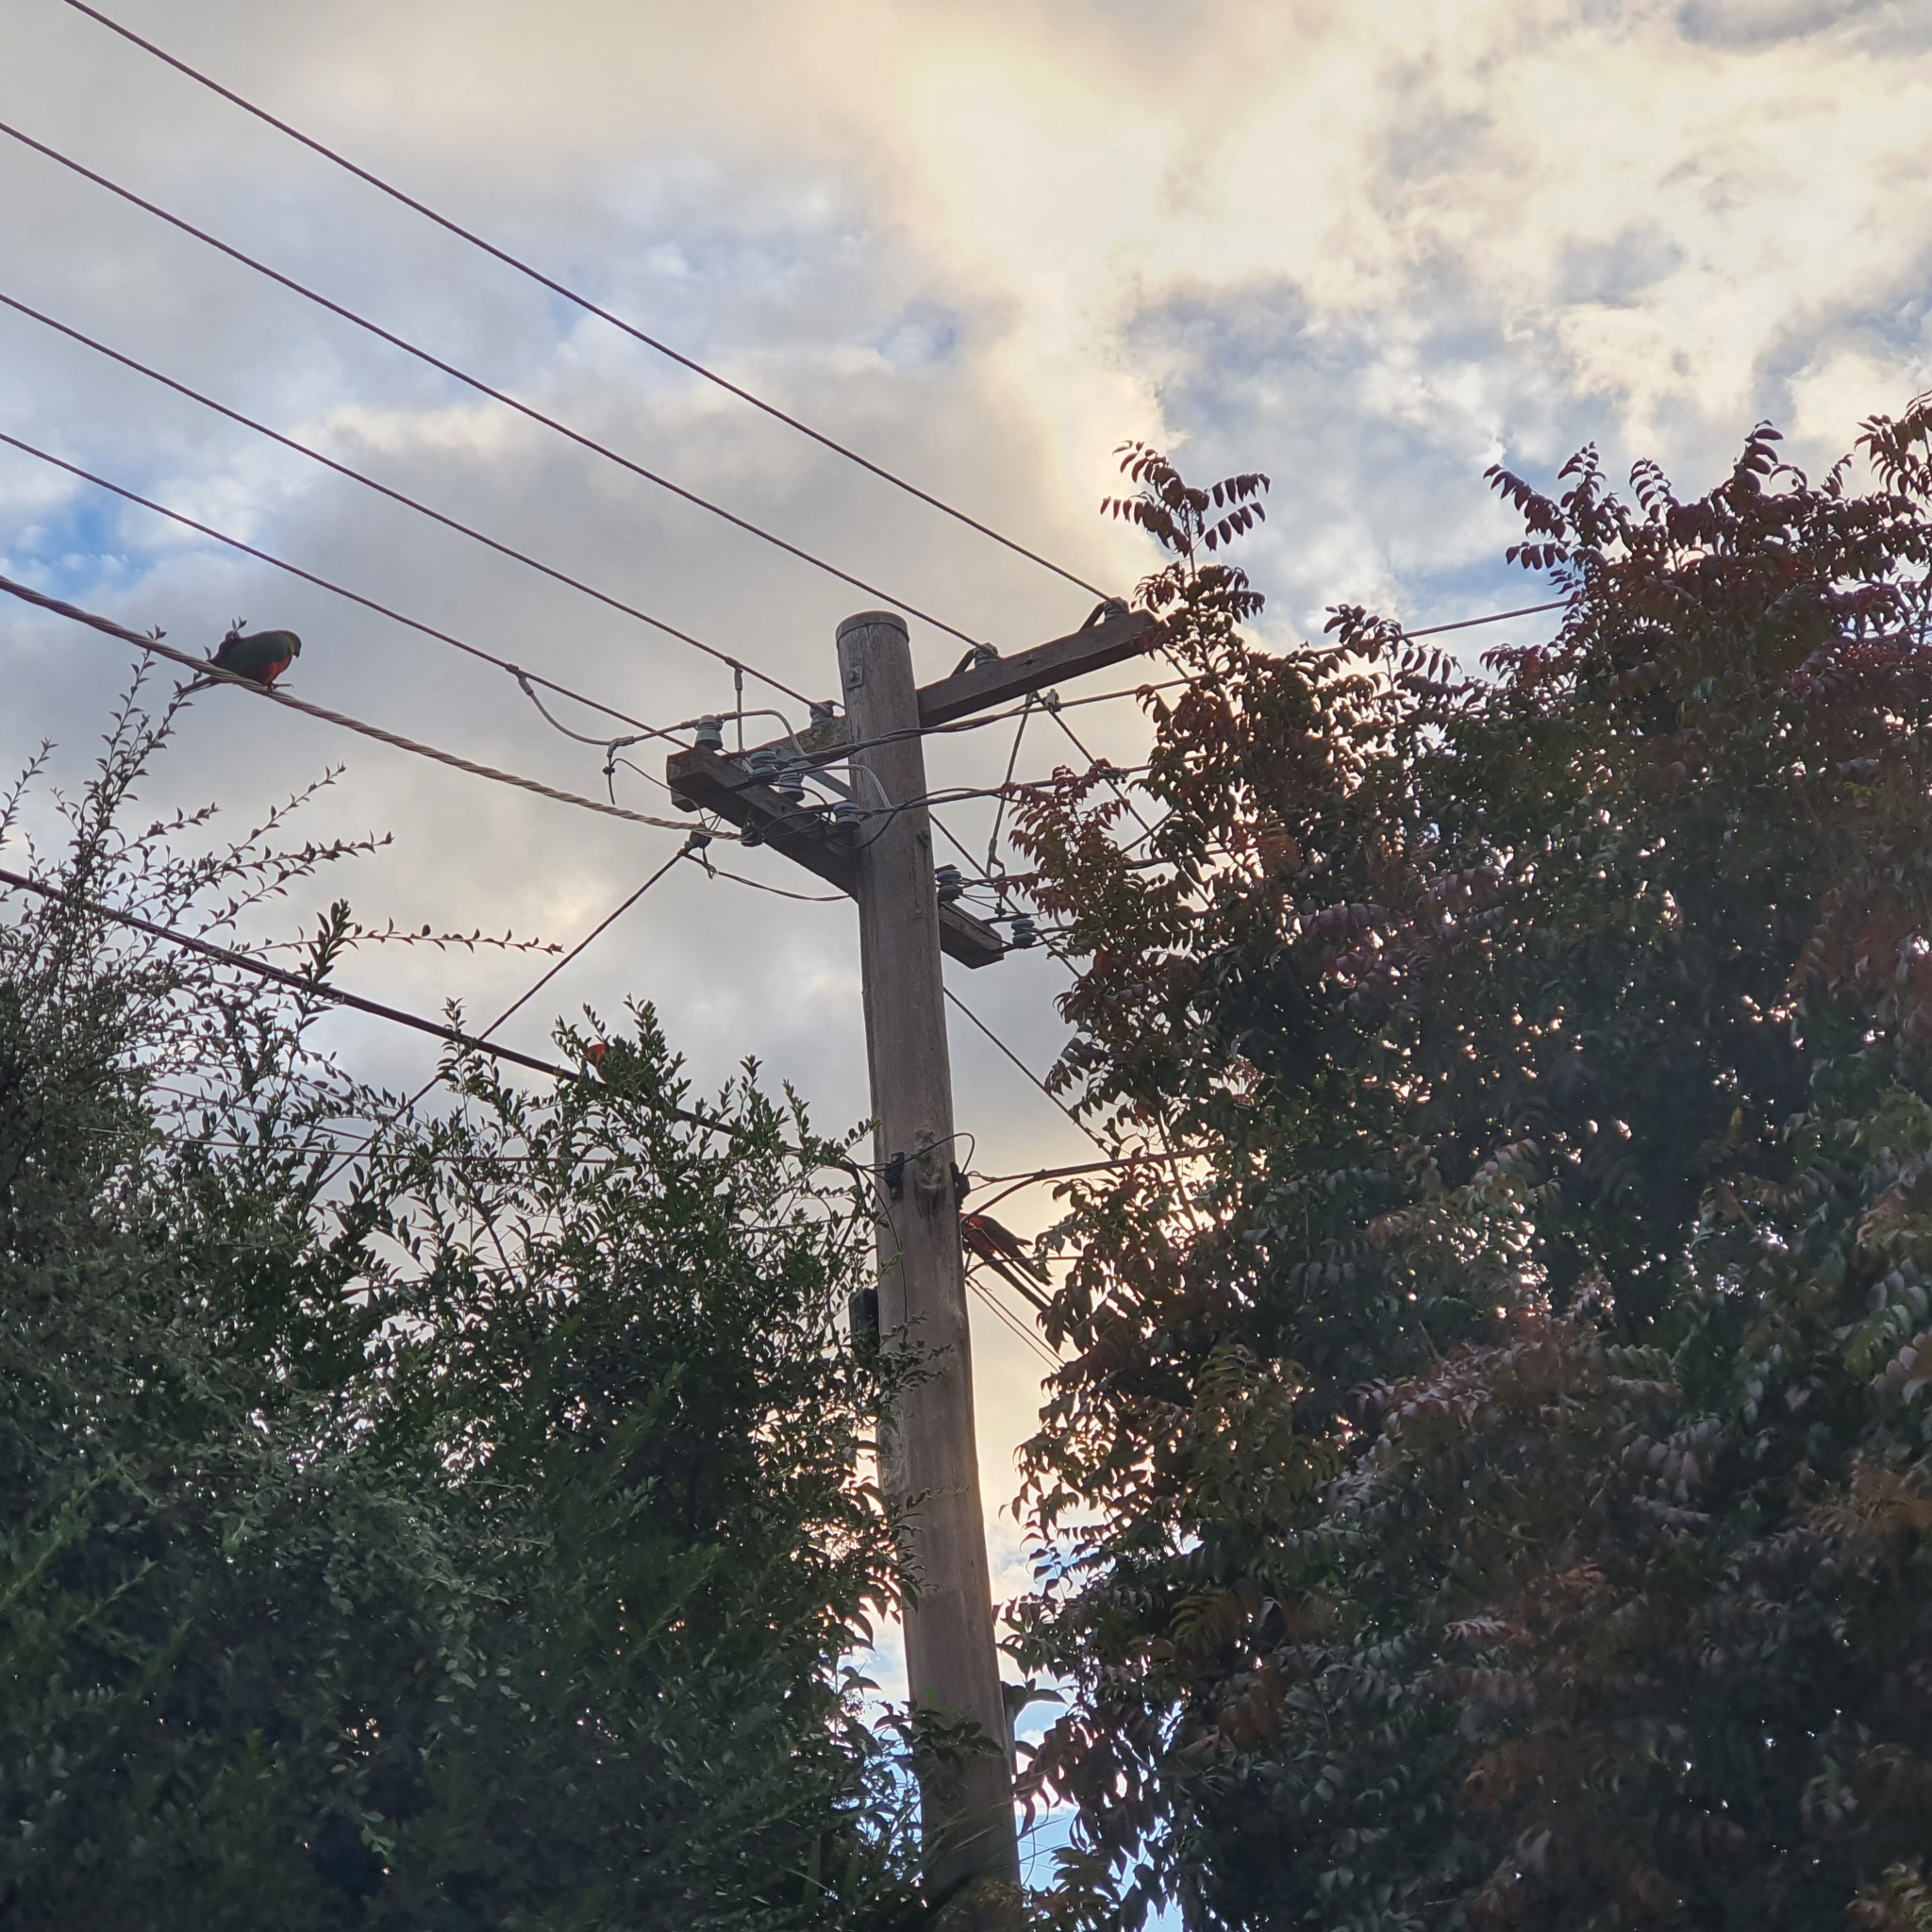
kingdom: Animalia
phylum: Chordata
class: Aves
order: Psittaciformes
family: Psittacidae
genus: Alisterus
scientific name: Alisterus scapularis
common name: Australian king parrot
